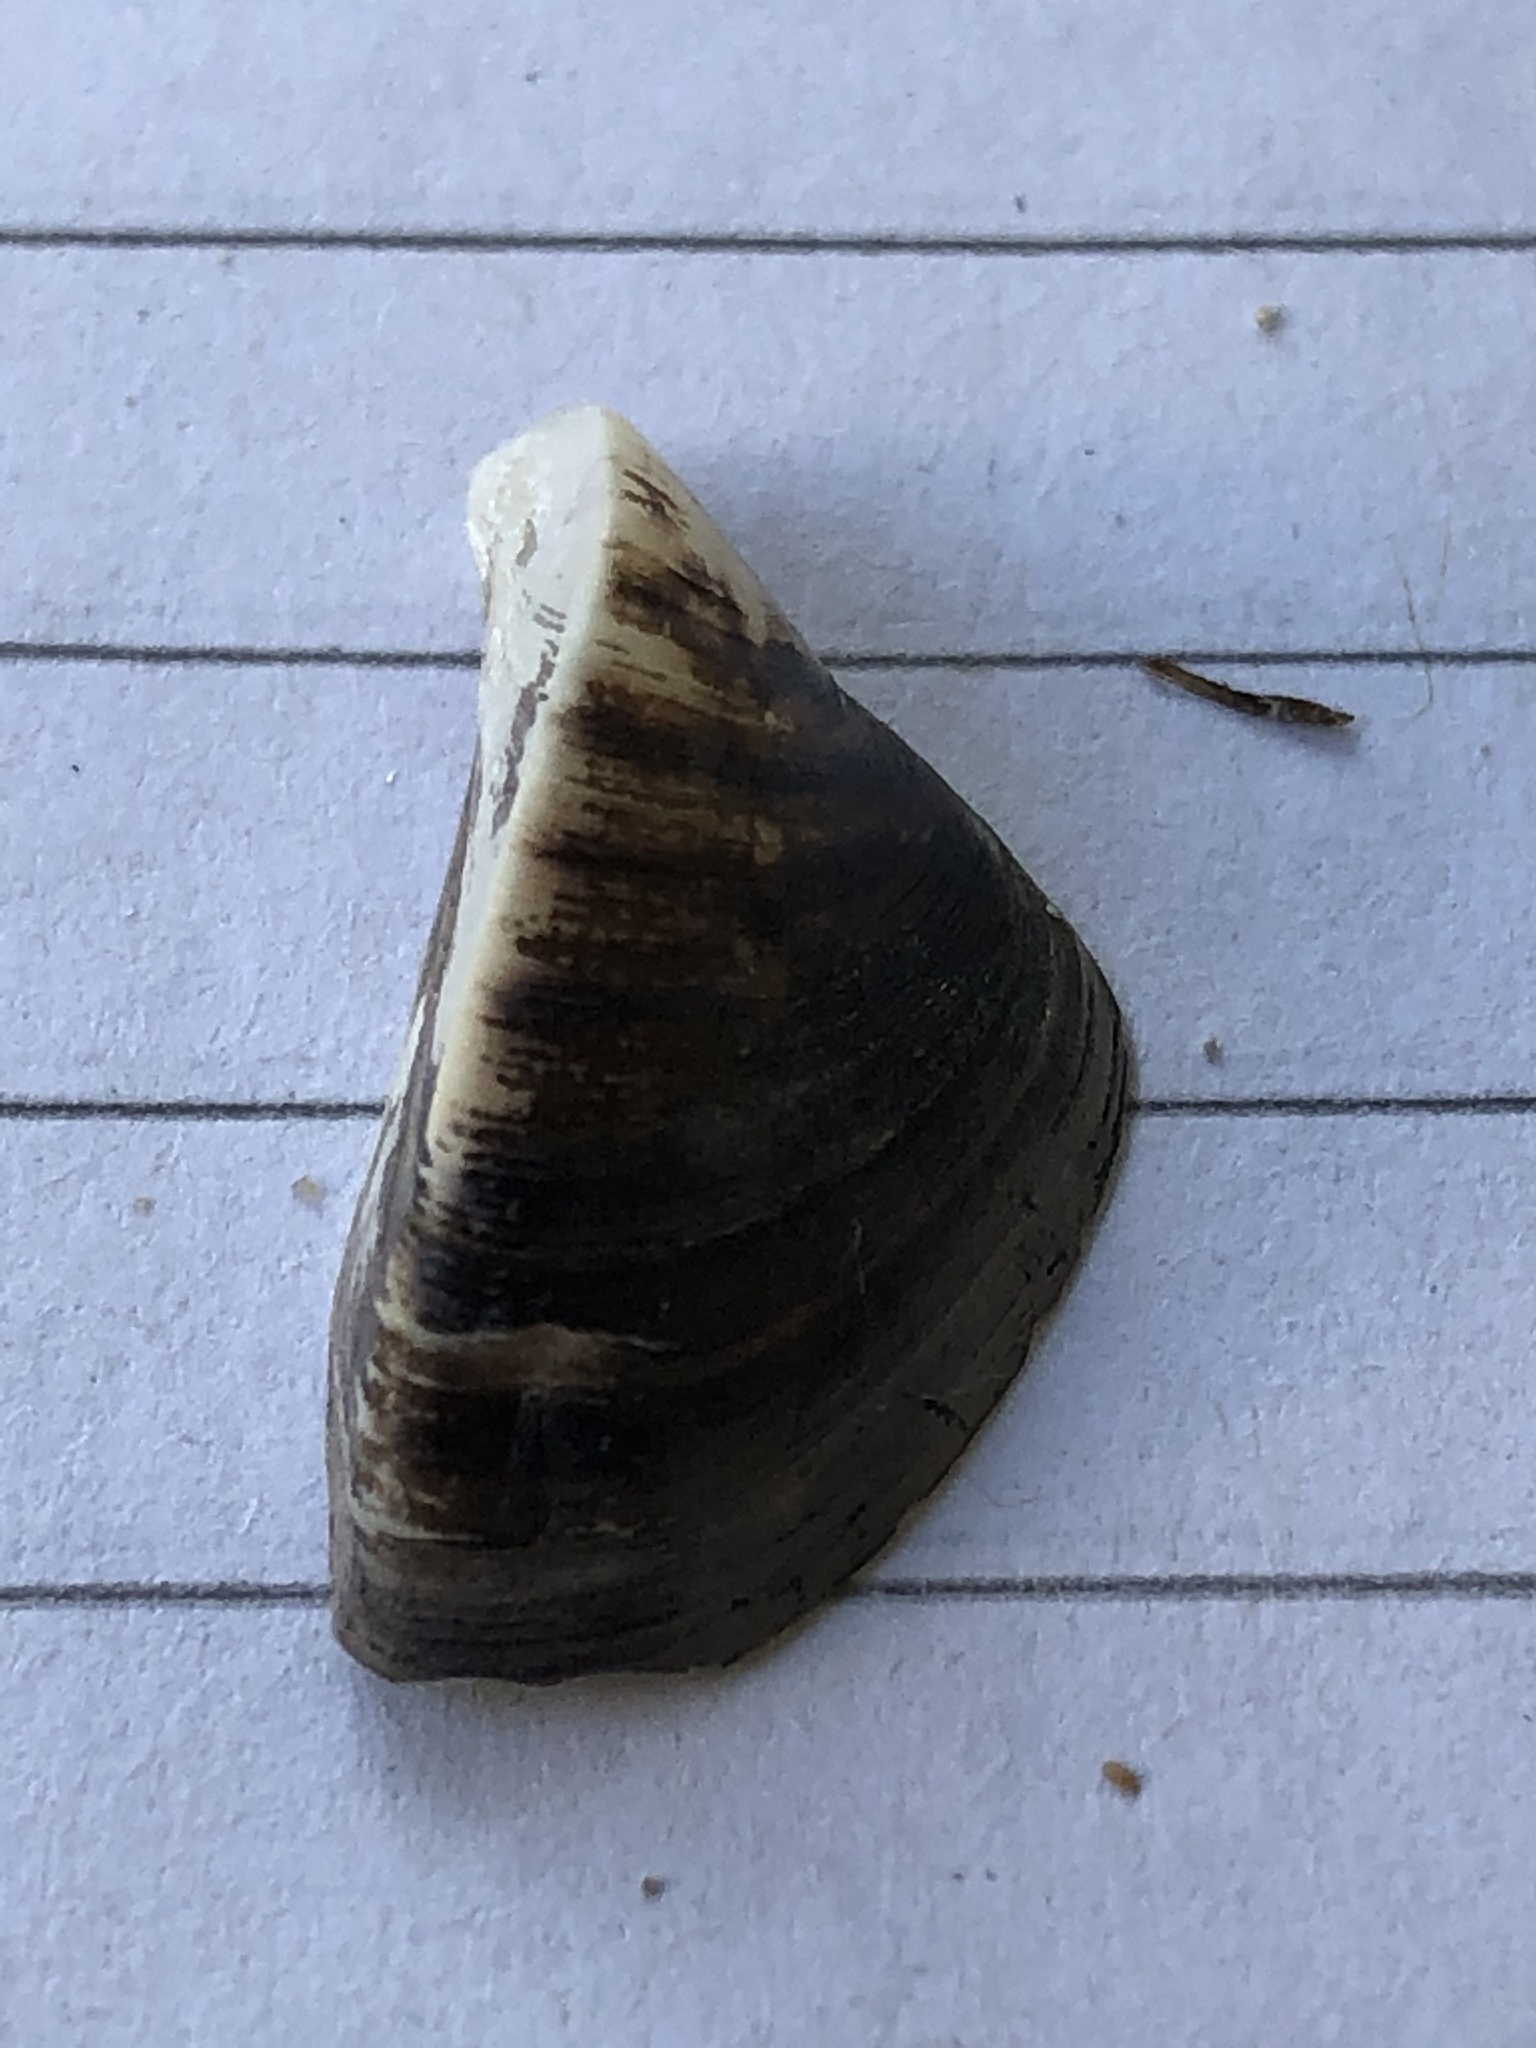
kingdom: Animalia
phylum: Mollusca
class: Bivalvia
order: Myida
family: Dreissenidae
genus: Dreissena
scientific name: Dreissena polymorpha
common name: Zebra mussel
